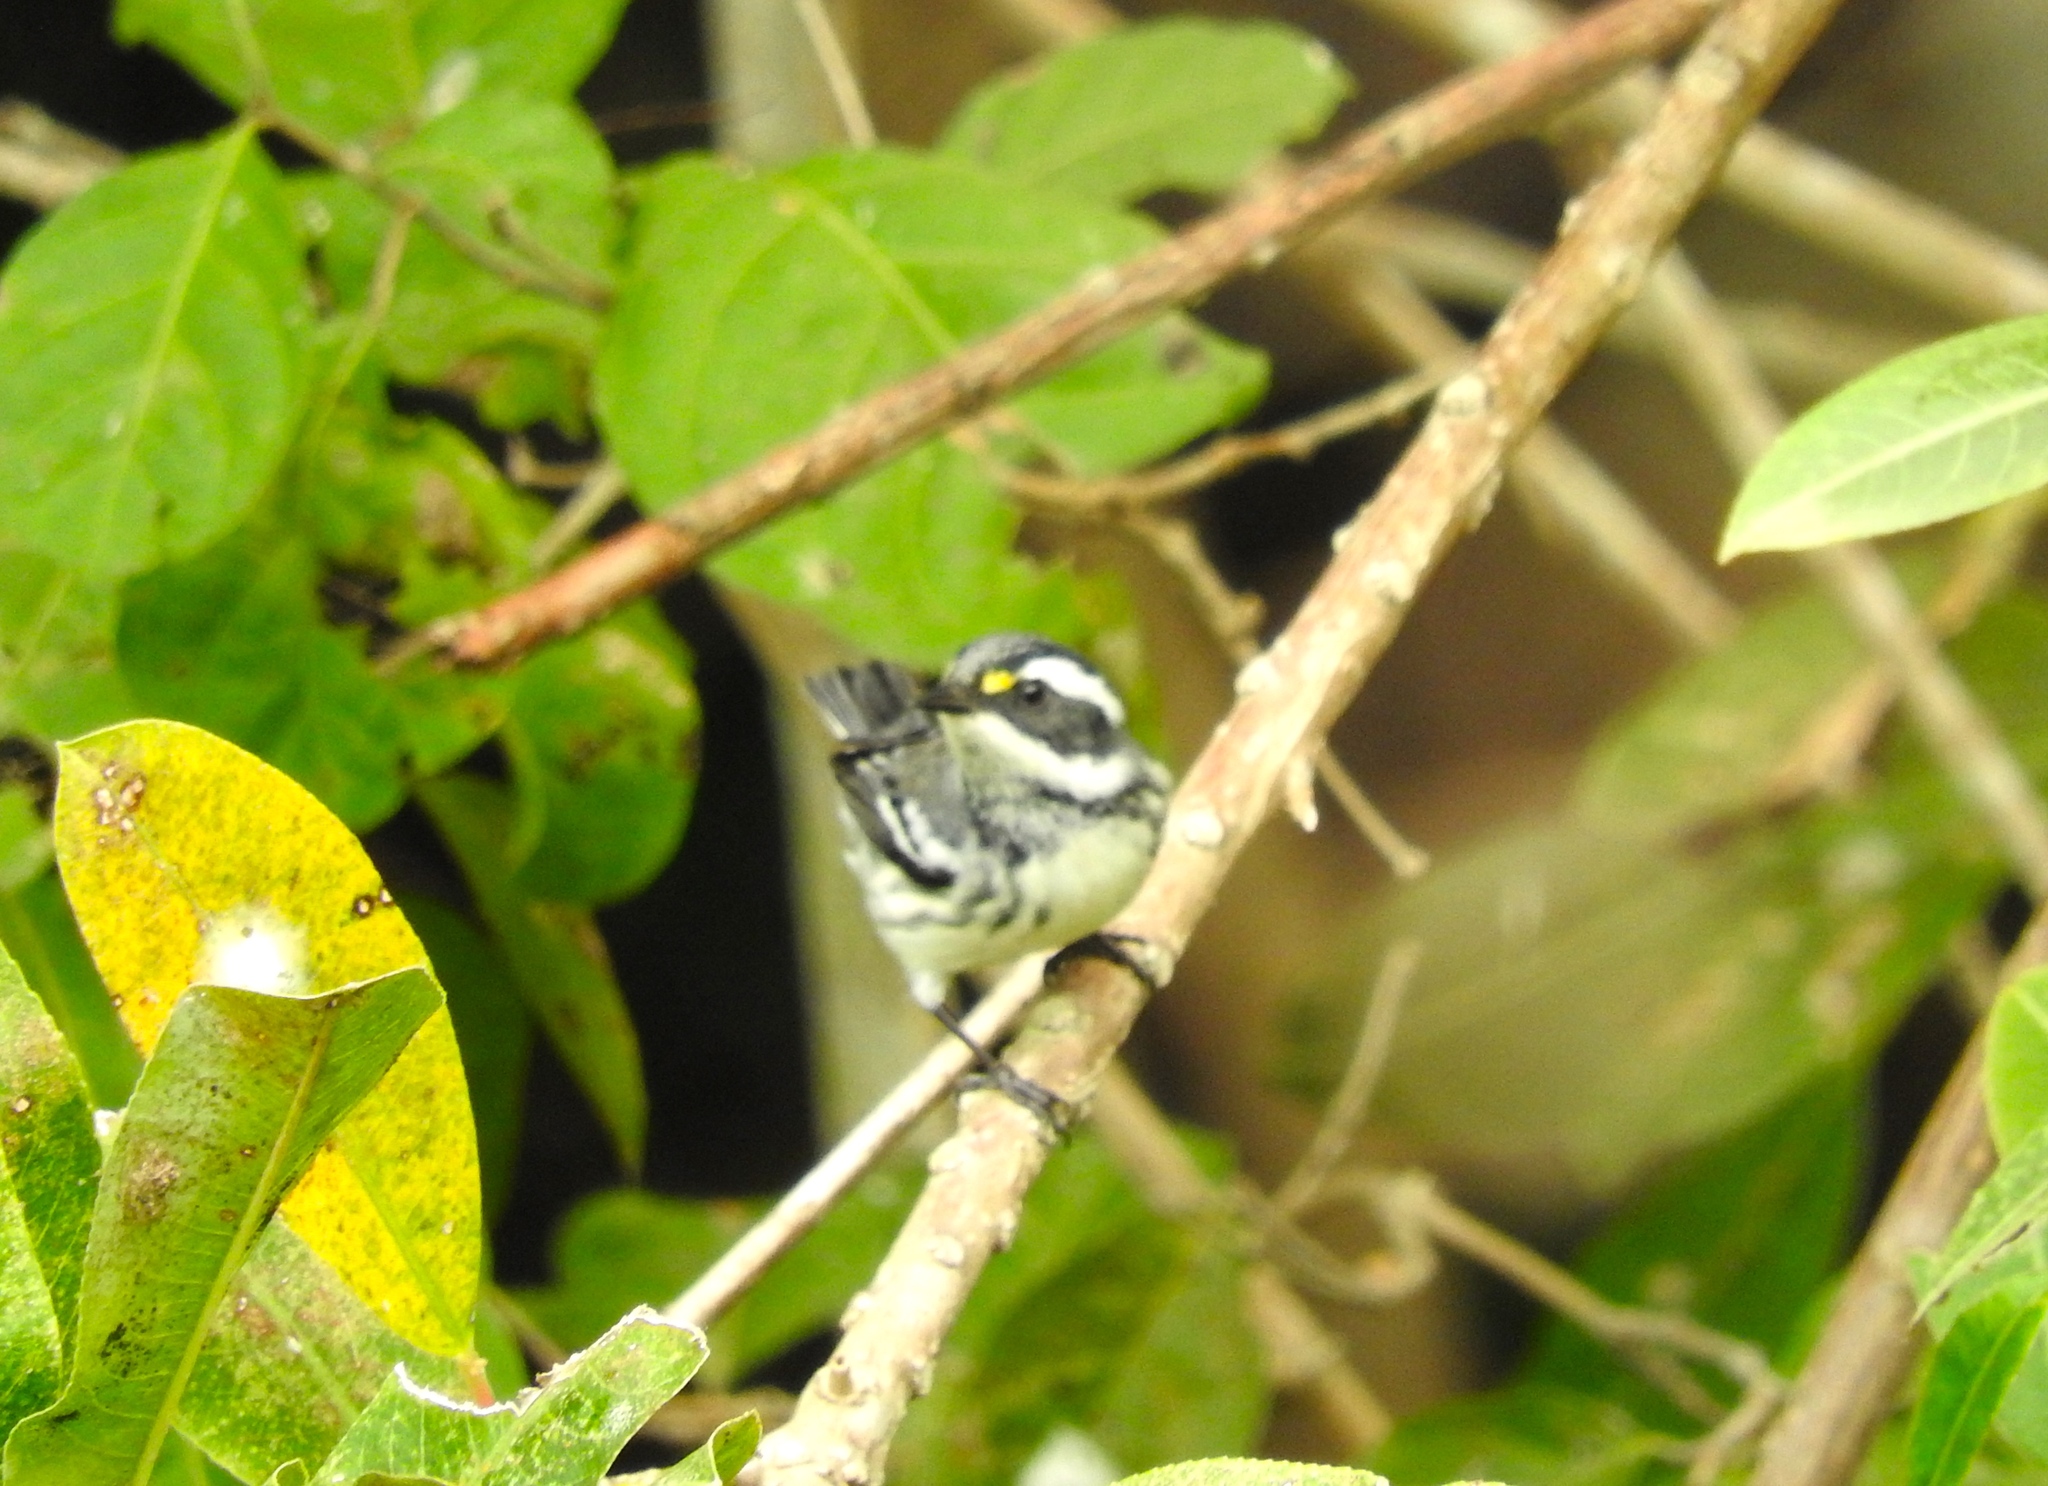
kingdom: Animalia
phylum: Chordata
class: Aves
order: Passeriformes
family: Parulidae
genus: Setophaga
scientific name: Setophaga nigrescens
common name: Black-throated gray warbler
